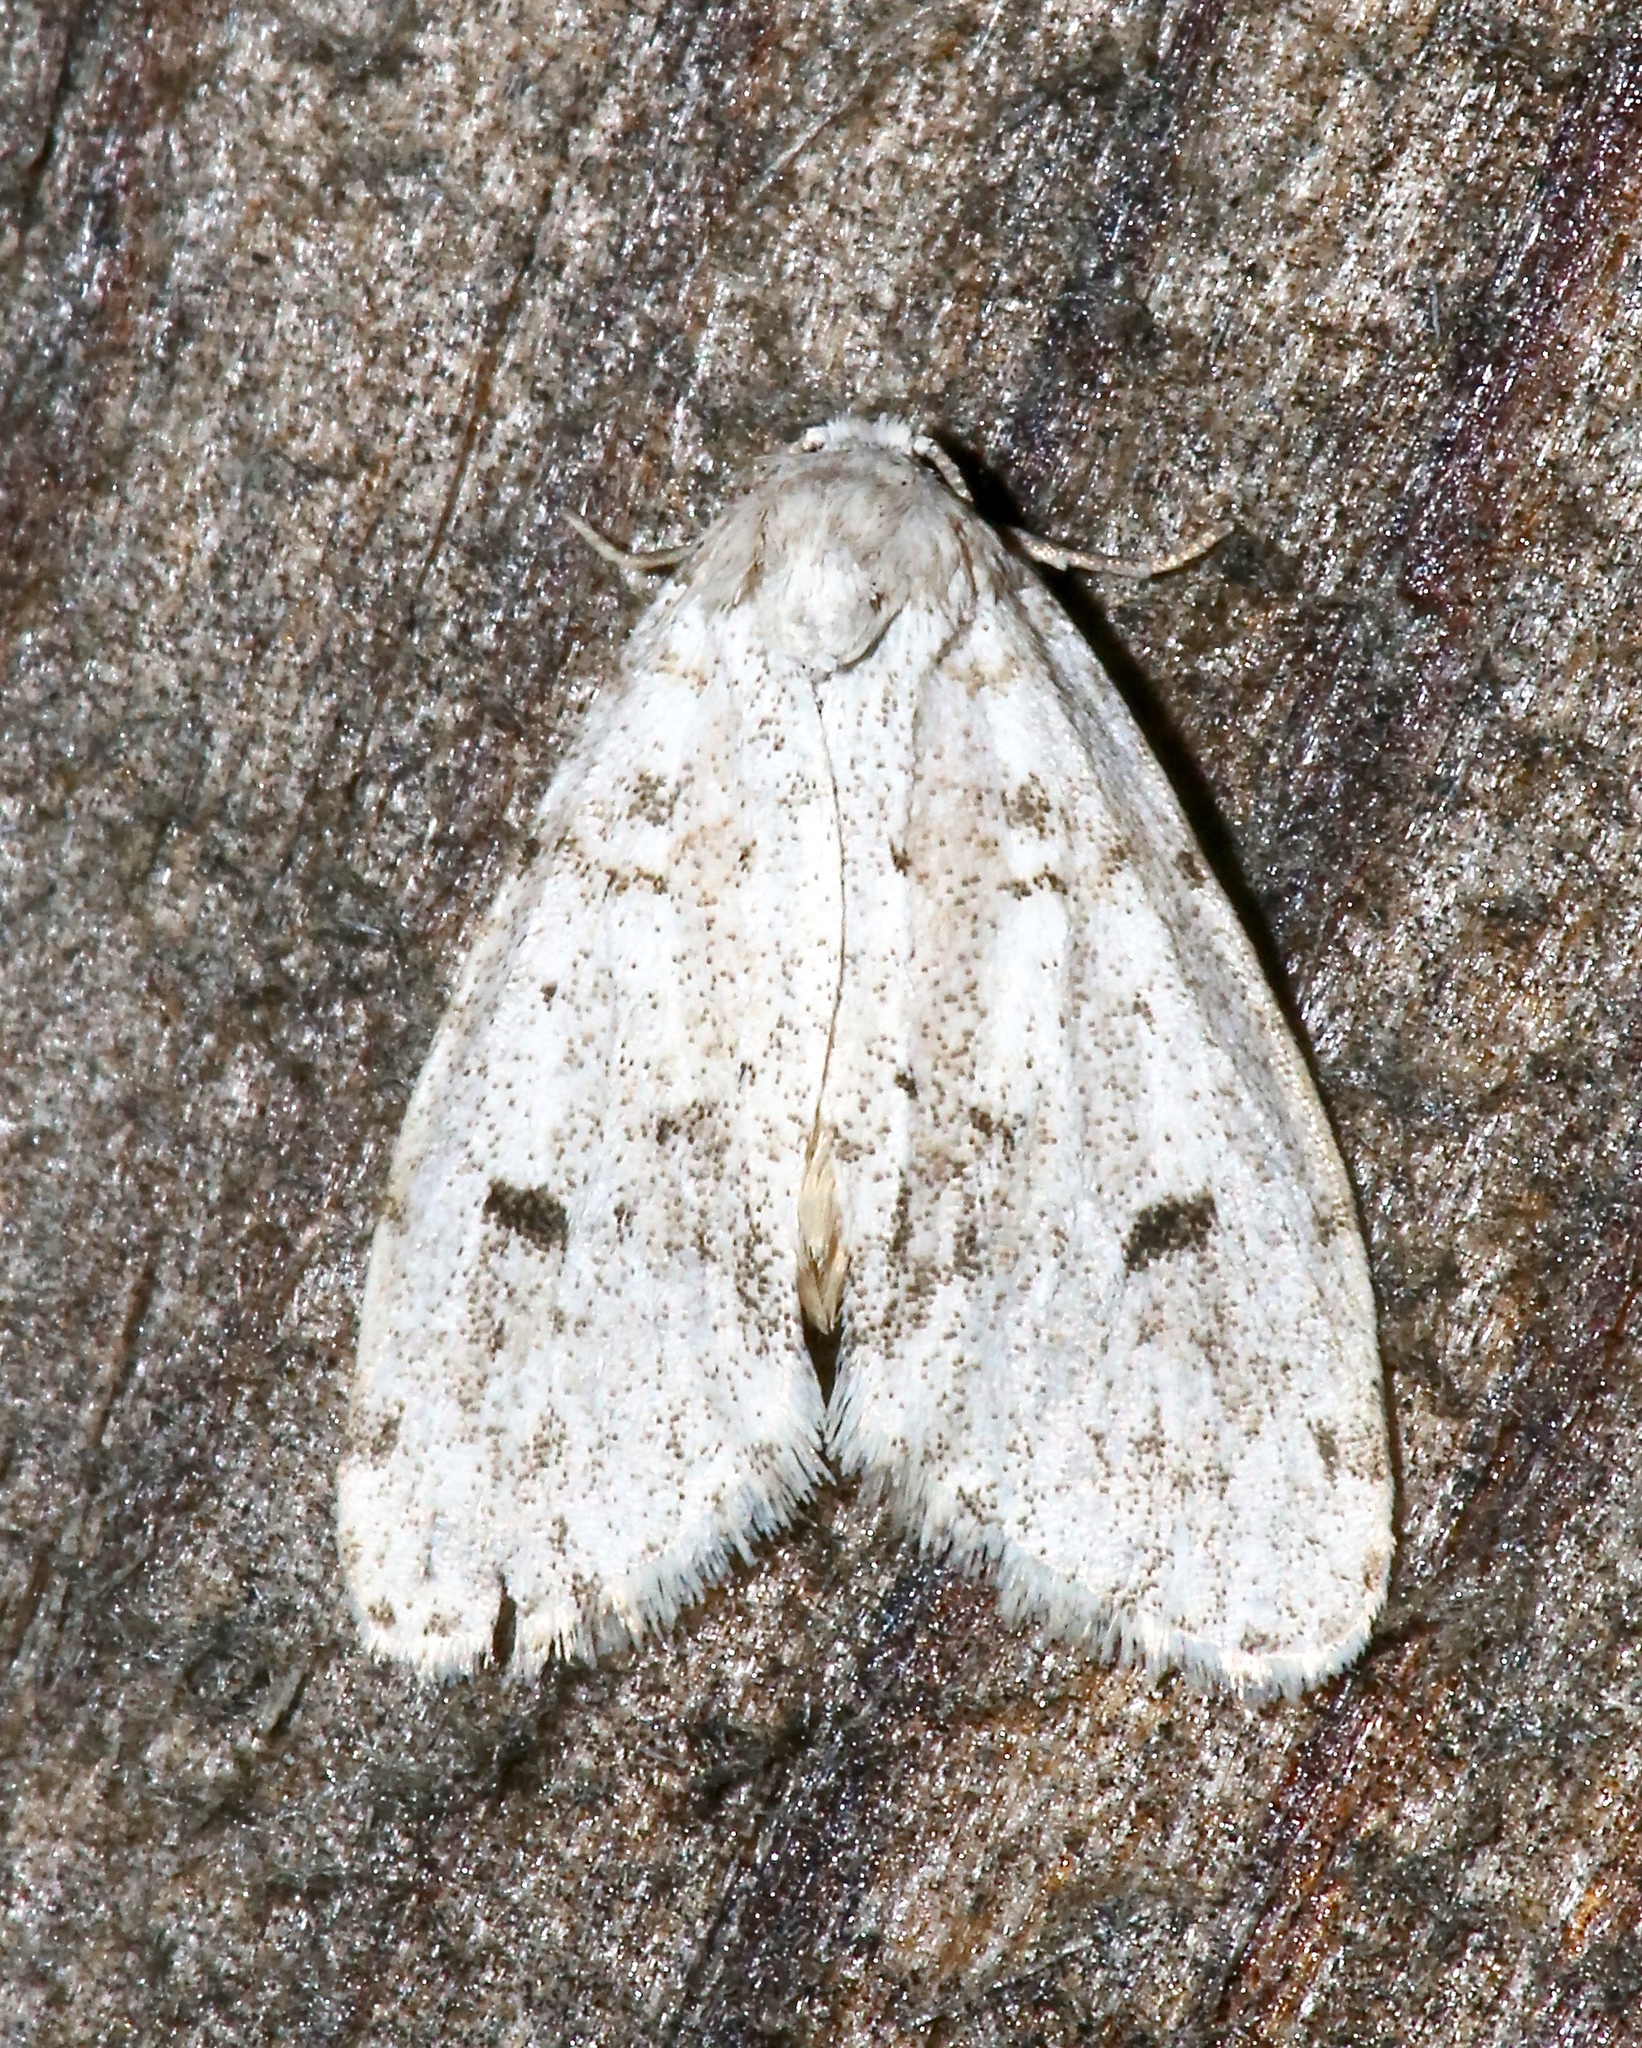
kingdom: Animalia
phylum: Arthropoda
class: Insecta
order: Lepidoptera
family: Erebidae
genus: Clemensia
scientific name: Clemensia albata
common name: Little white lichen moth
